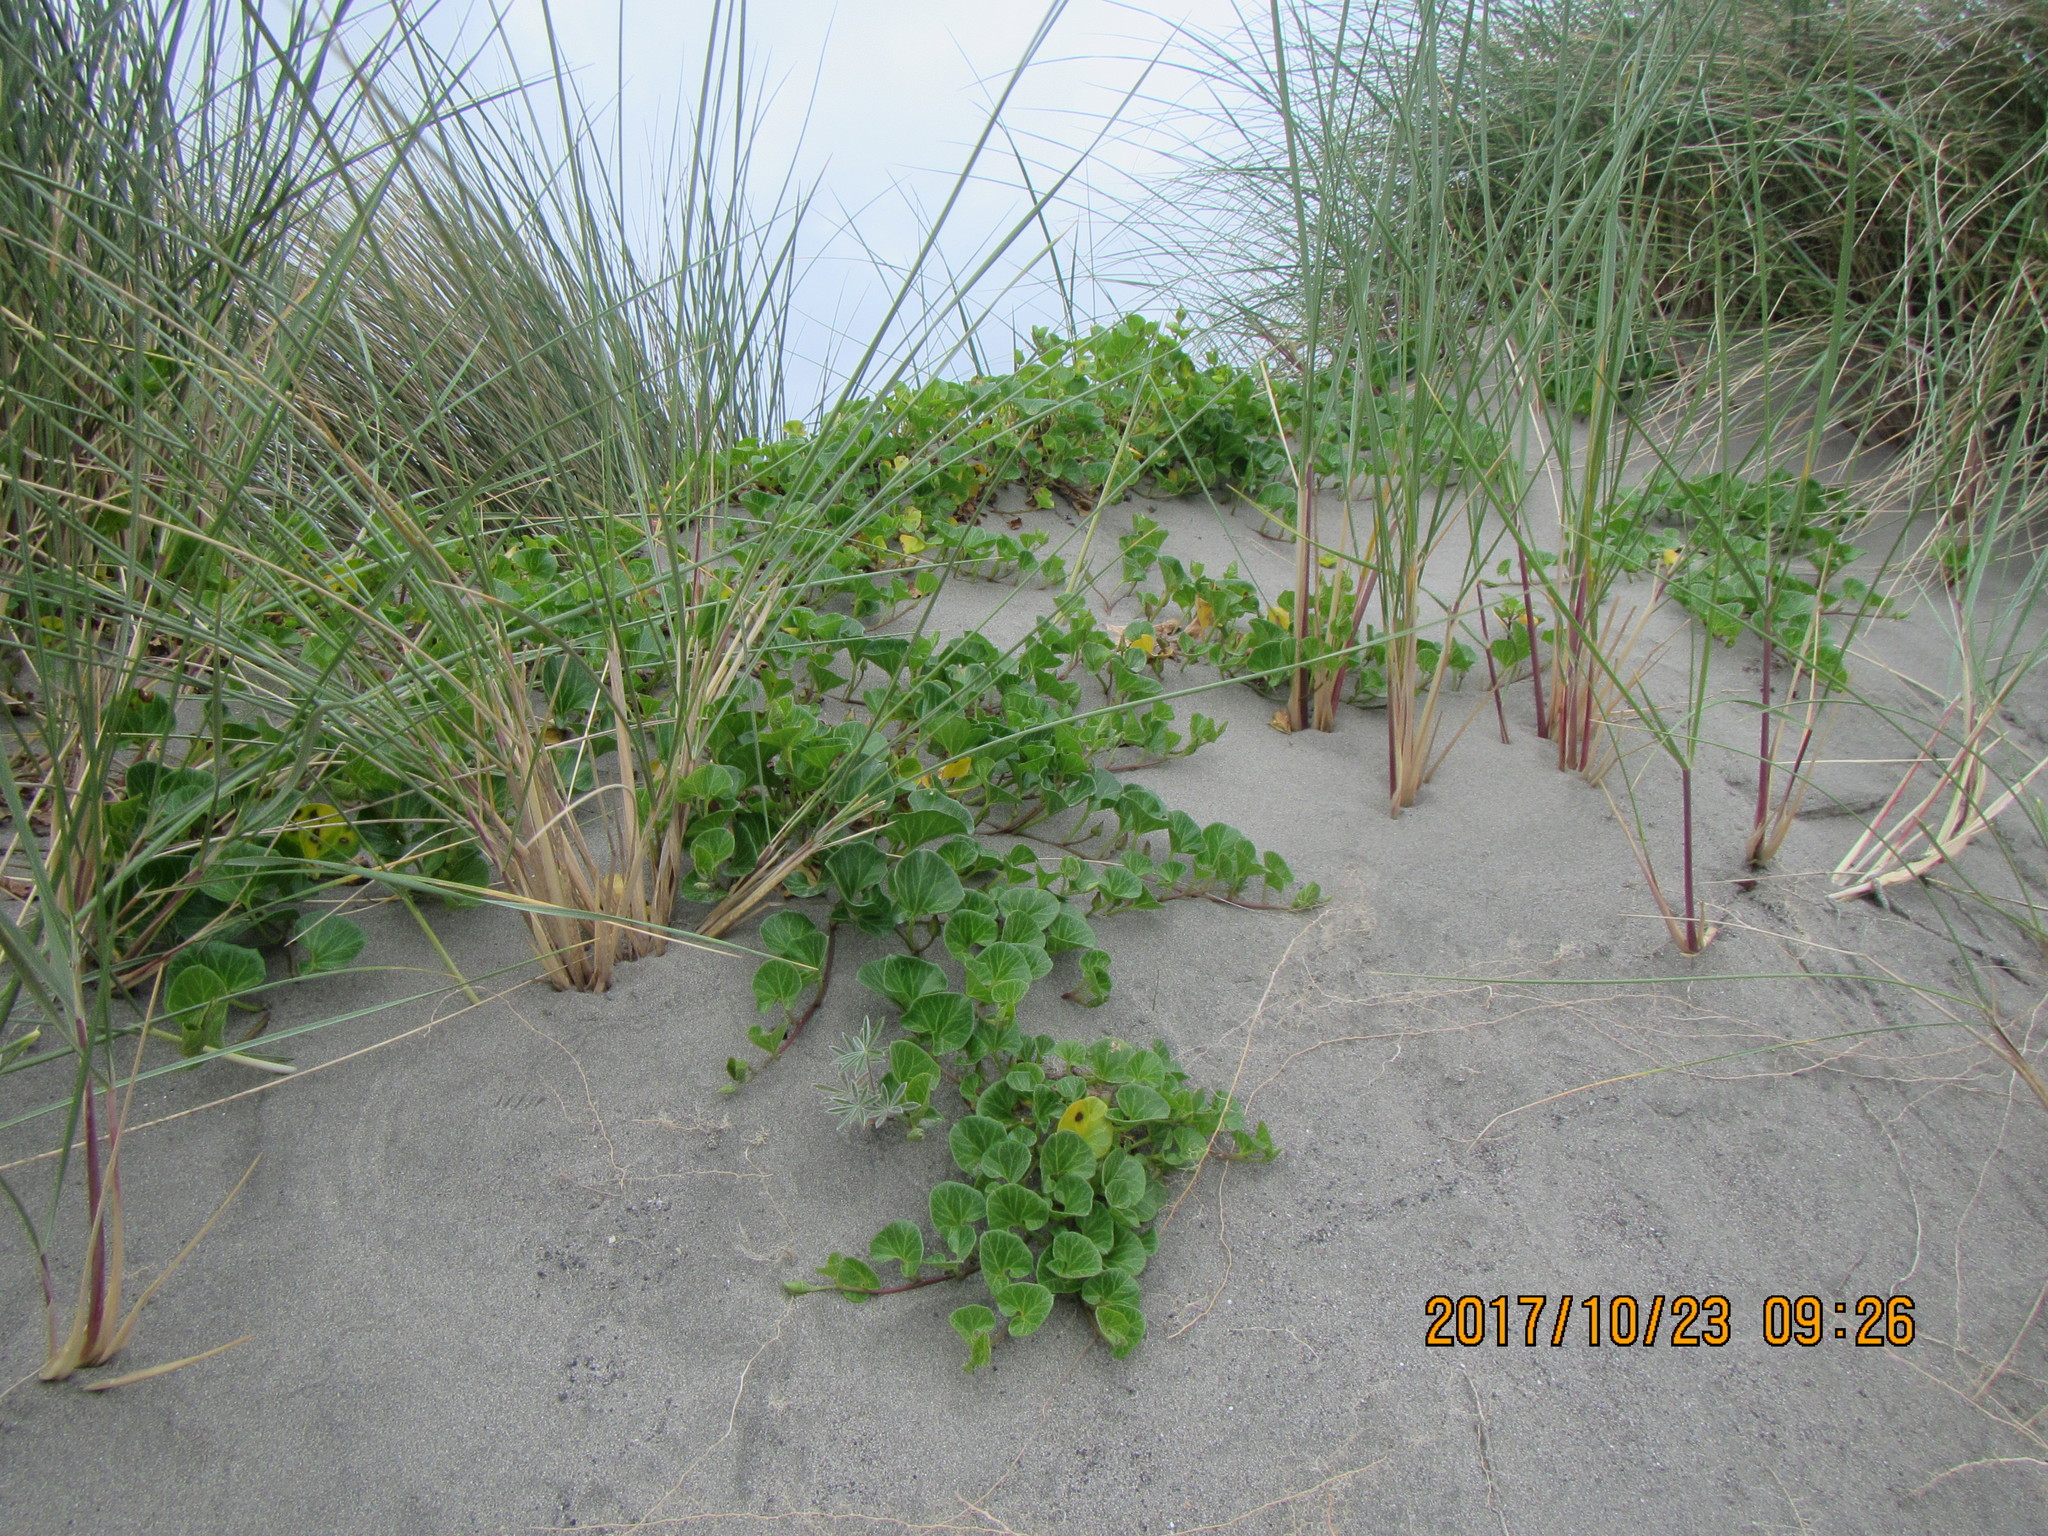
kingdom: Plantae
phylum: Tracheophyta
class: Magnoliopsida
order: Solanales
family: Convolvulaceae
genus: Calystegia
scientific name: Calystegia soldanella
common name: Sea bindweed
